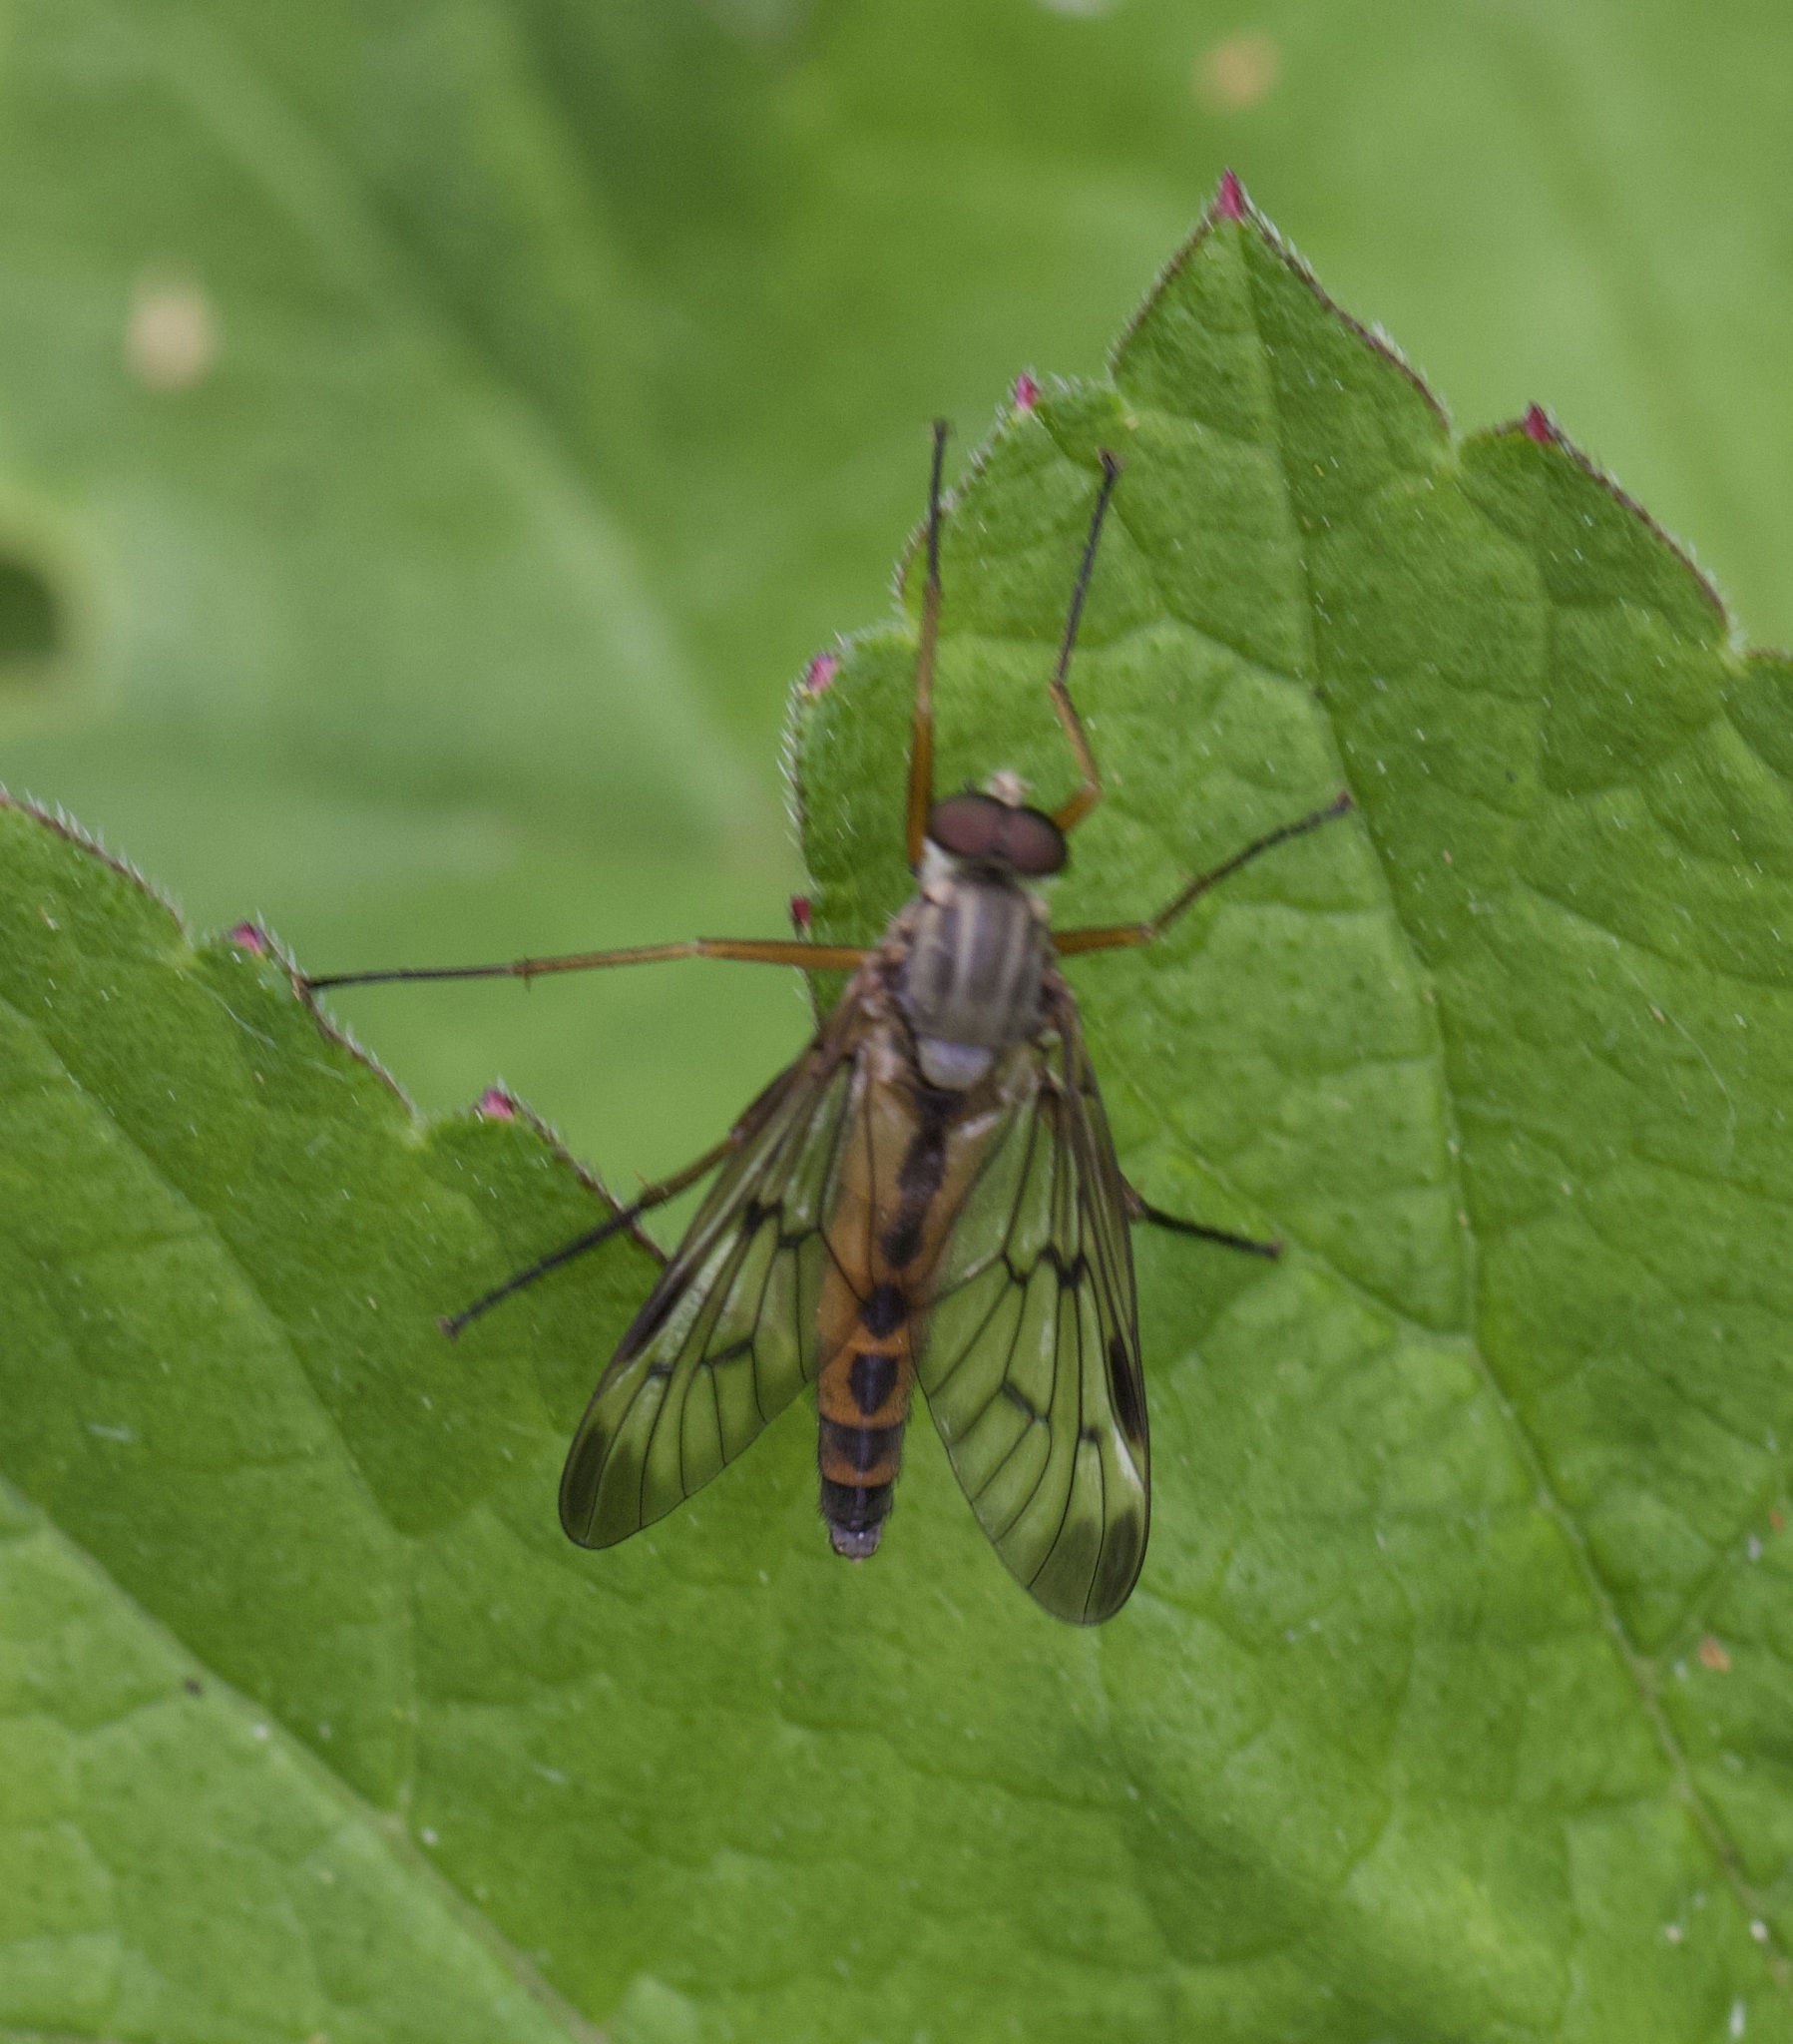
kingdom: Animalia
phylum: Arthropoda
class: Insecta
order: Diptera
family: Rhagionidae
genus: Rhagio
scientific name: Rhagio scolopacea
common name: Downlooker snipefly
